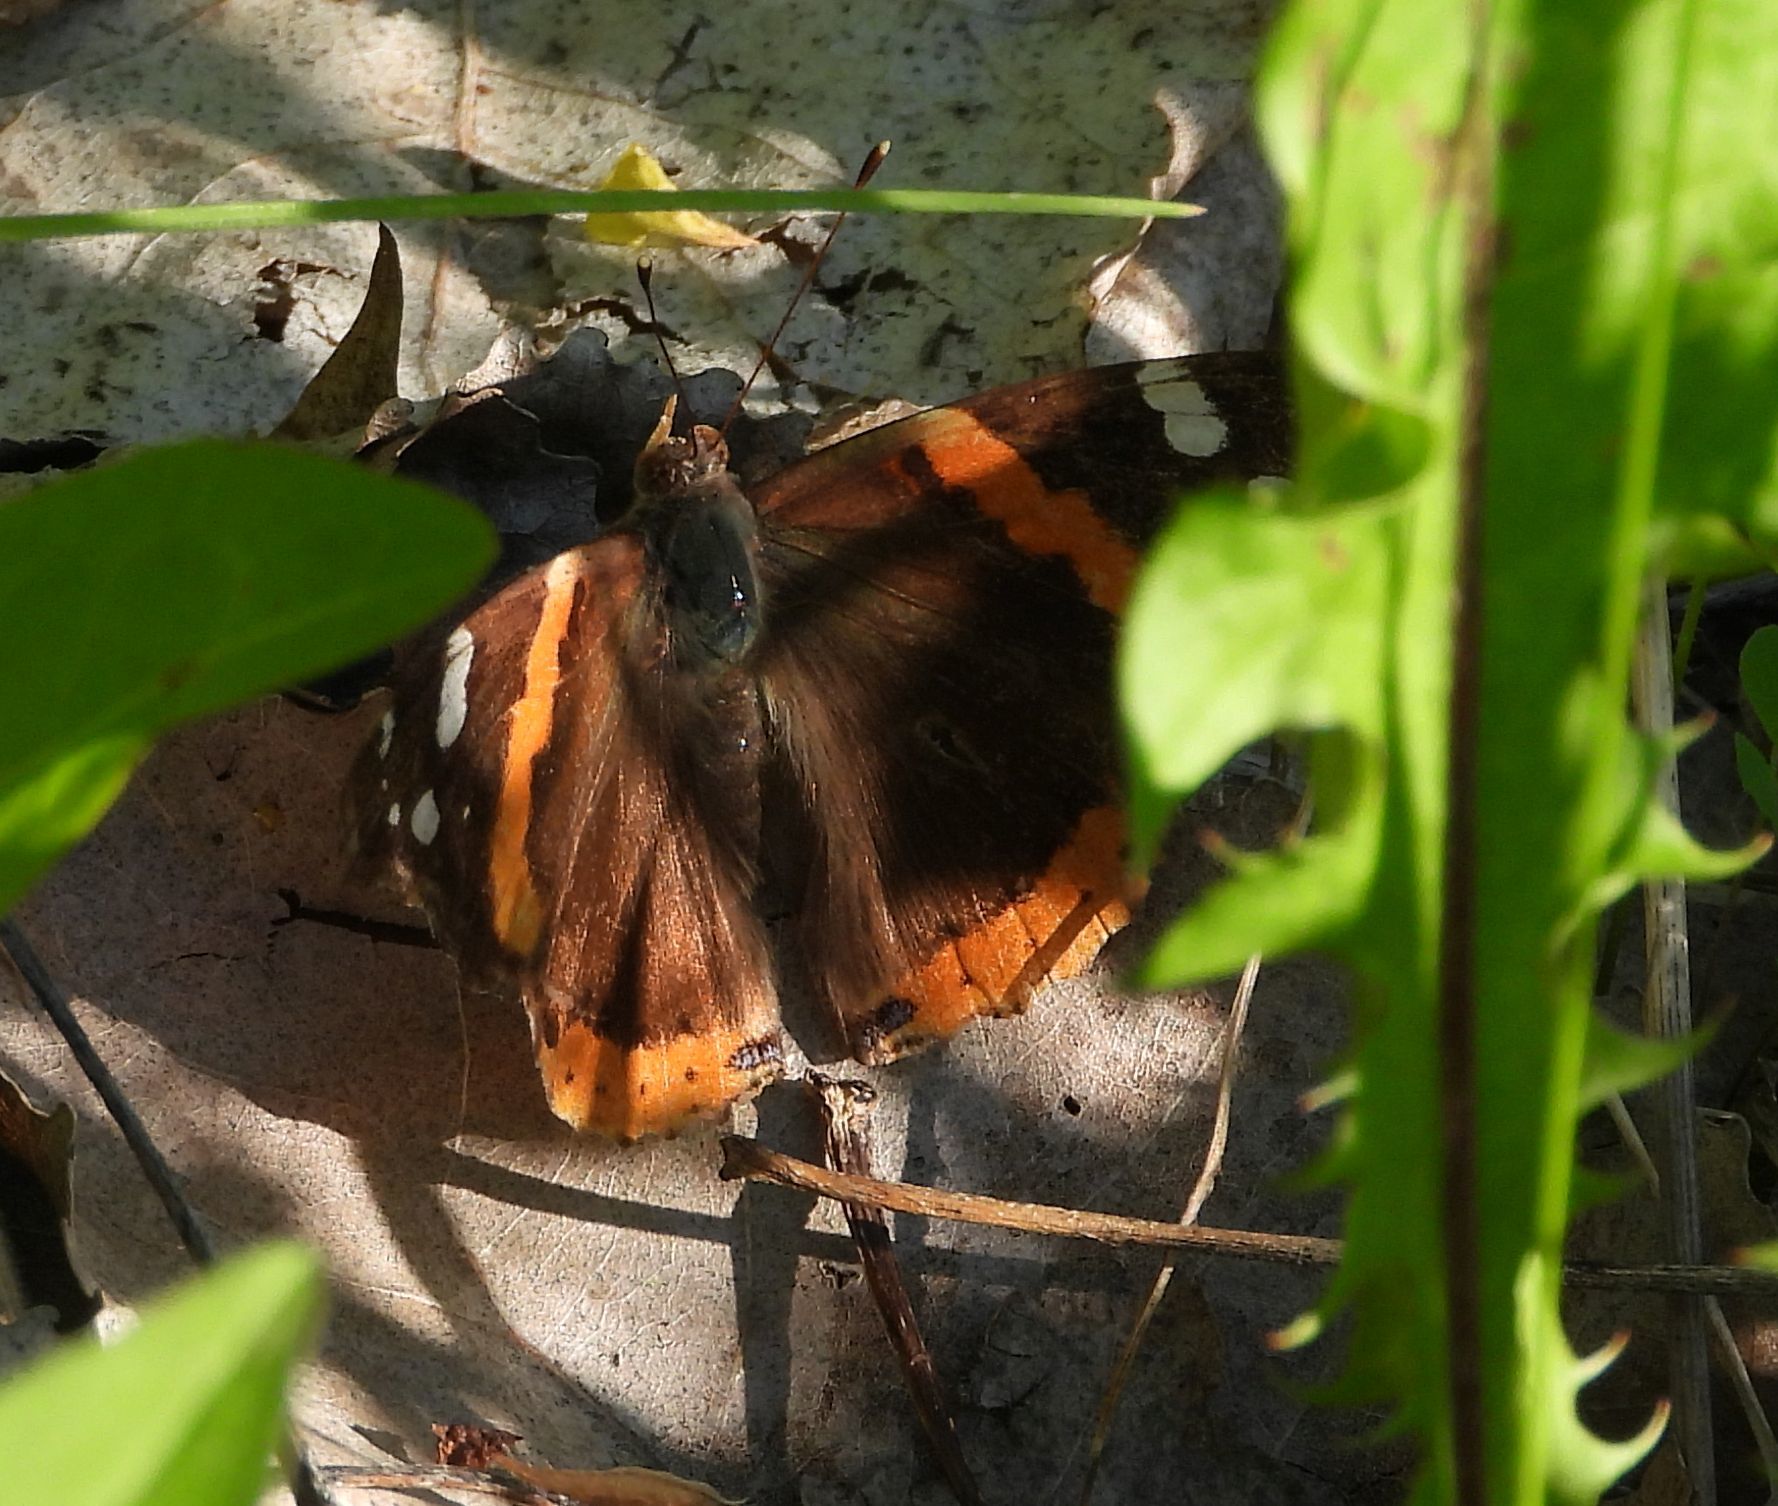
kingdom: Animalia
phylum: Arthropoda
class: Insecta
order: Lepidoptera
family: Nymphalidae
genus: Vanessa
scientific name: Vanessa atalanta
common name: Red admiral
